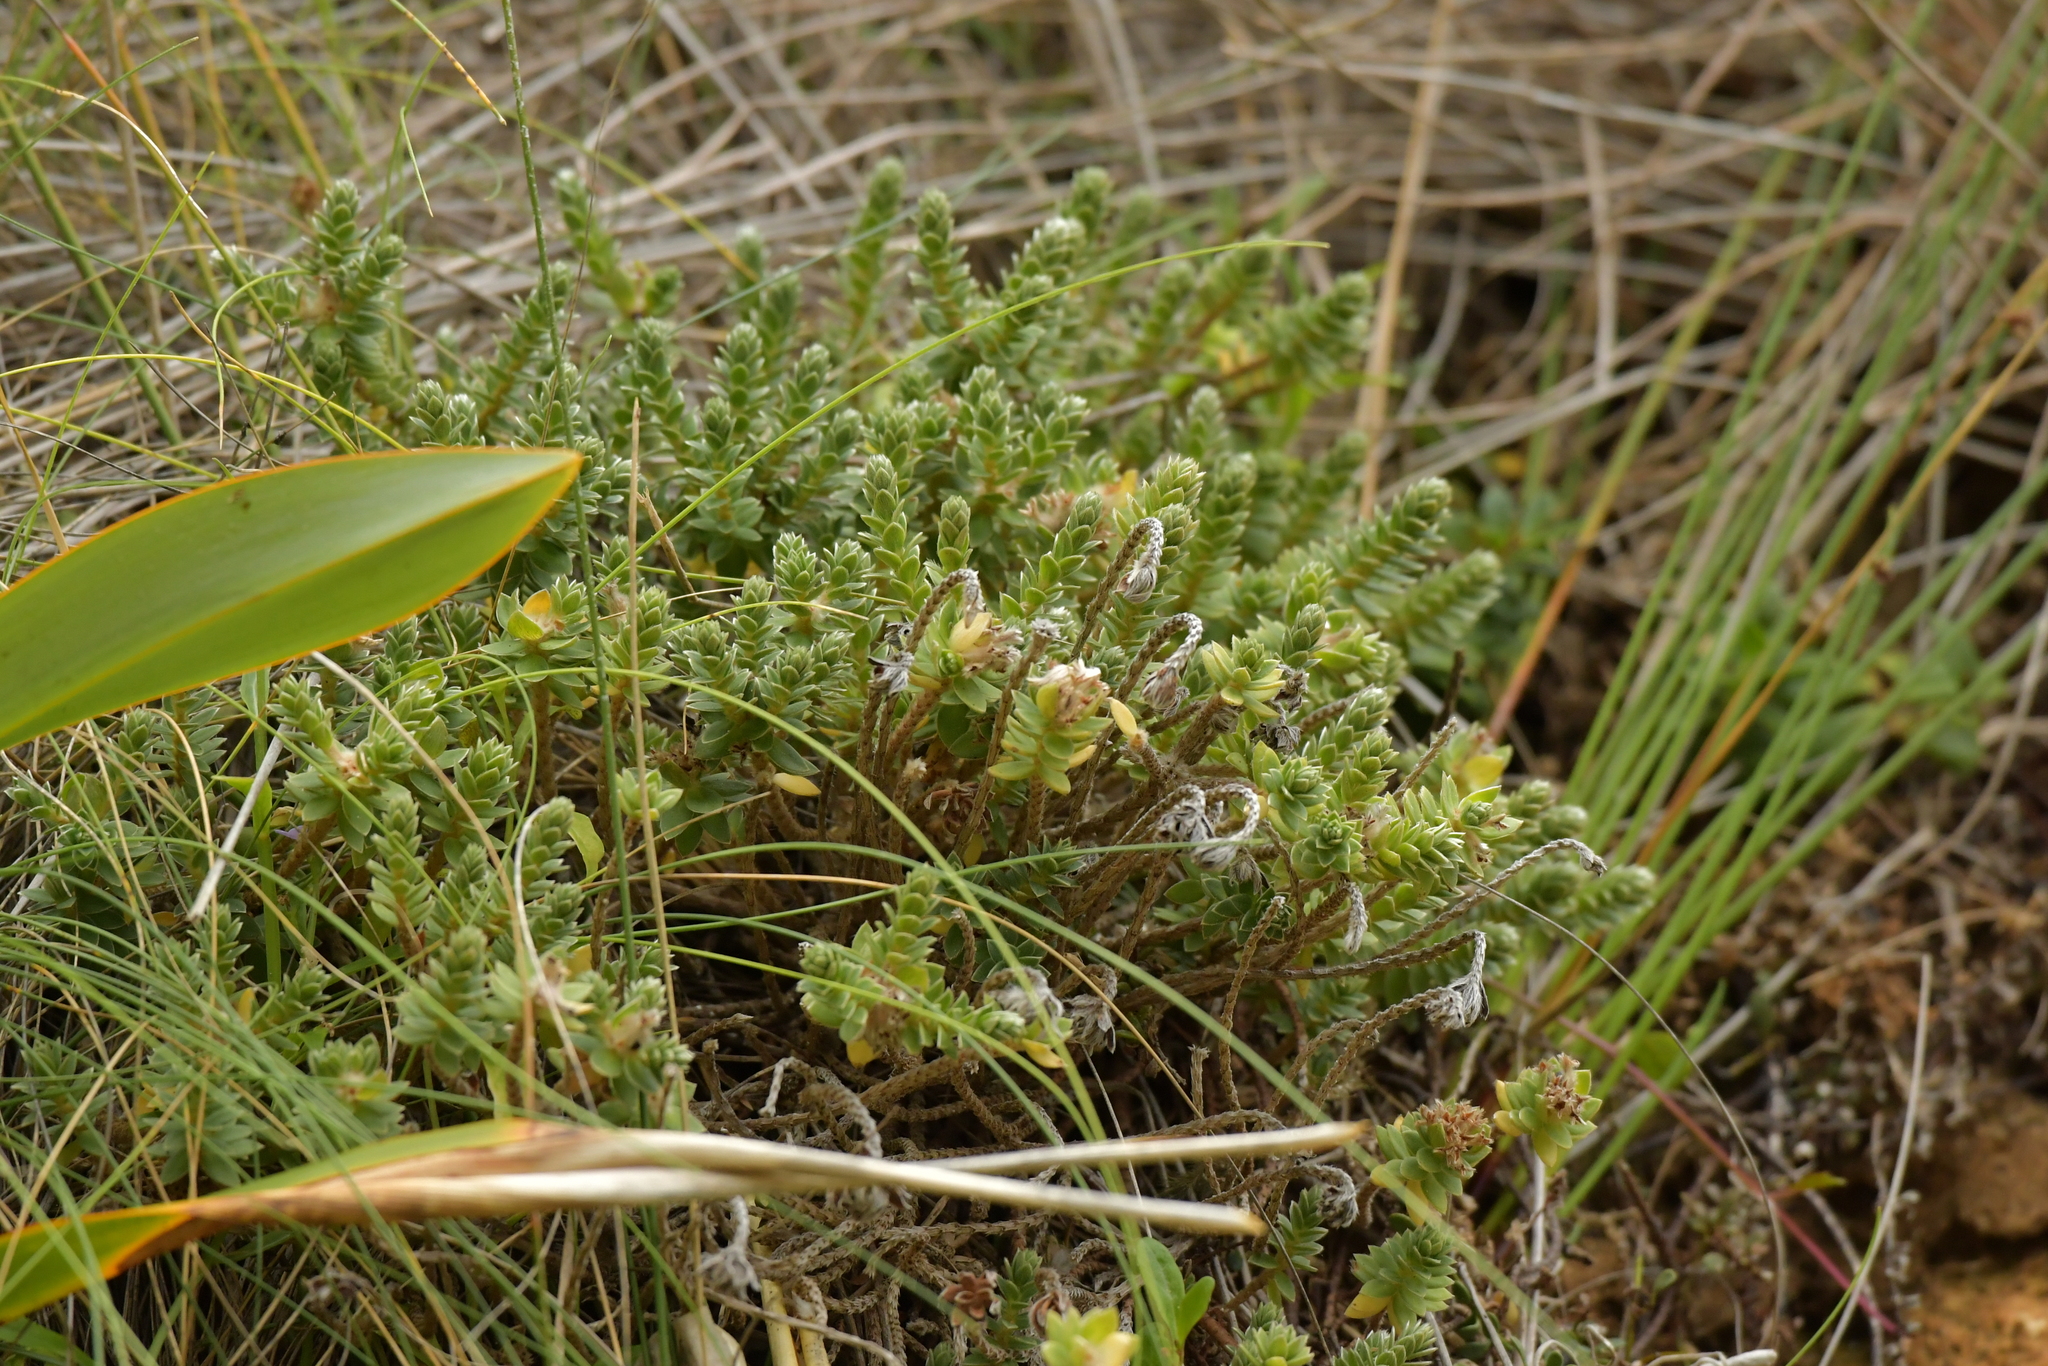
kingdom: Plantae
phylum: Tracheophyta
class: Magnoliopsida
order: Malvales
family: Thymelaeaceae
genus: Pimelea
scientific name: Pimelea villosa
